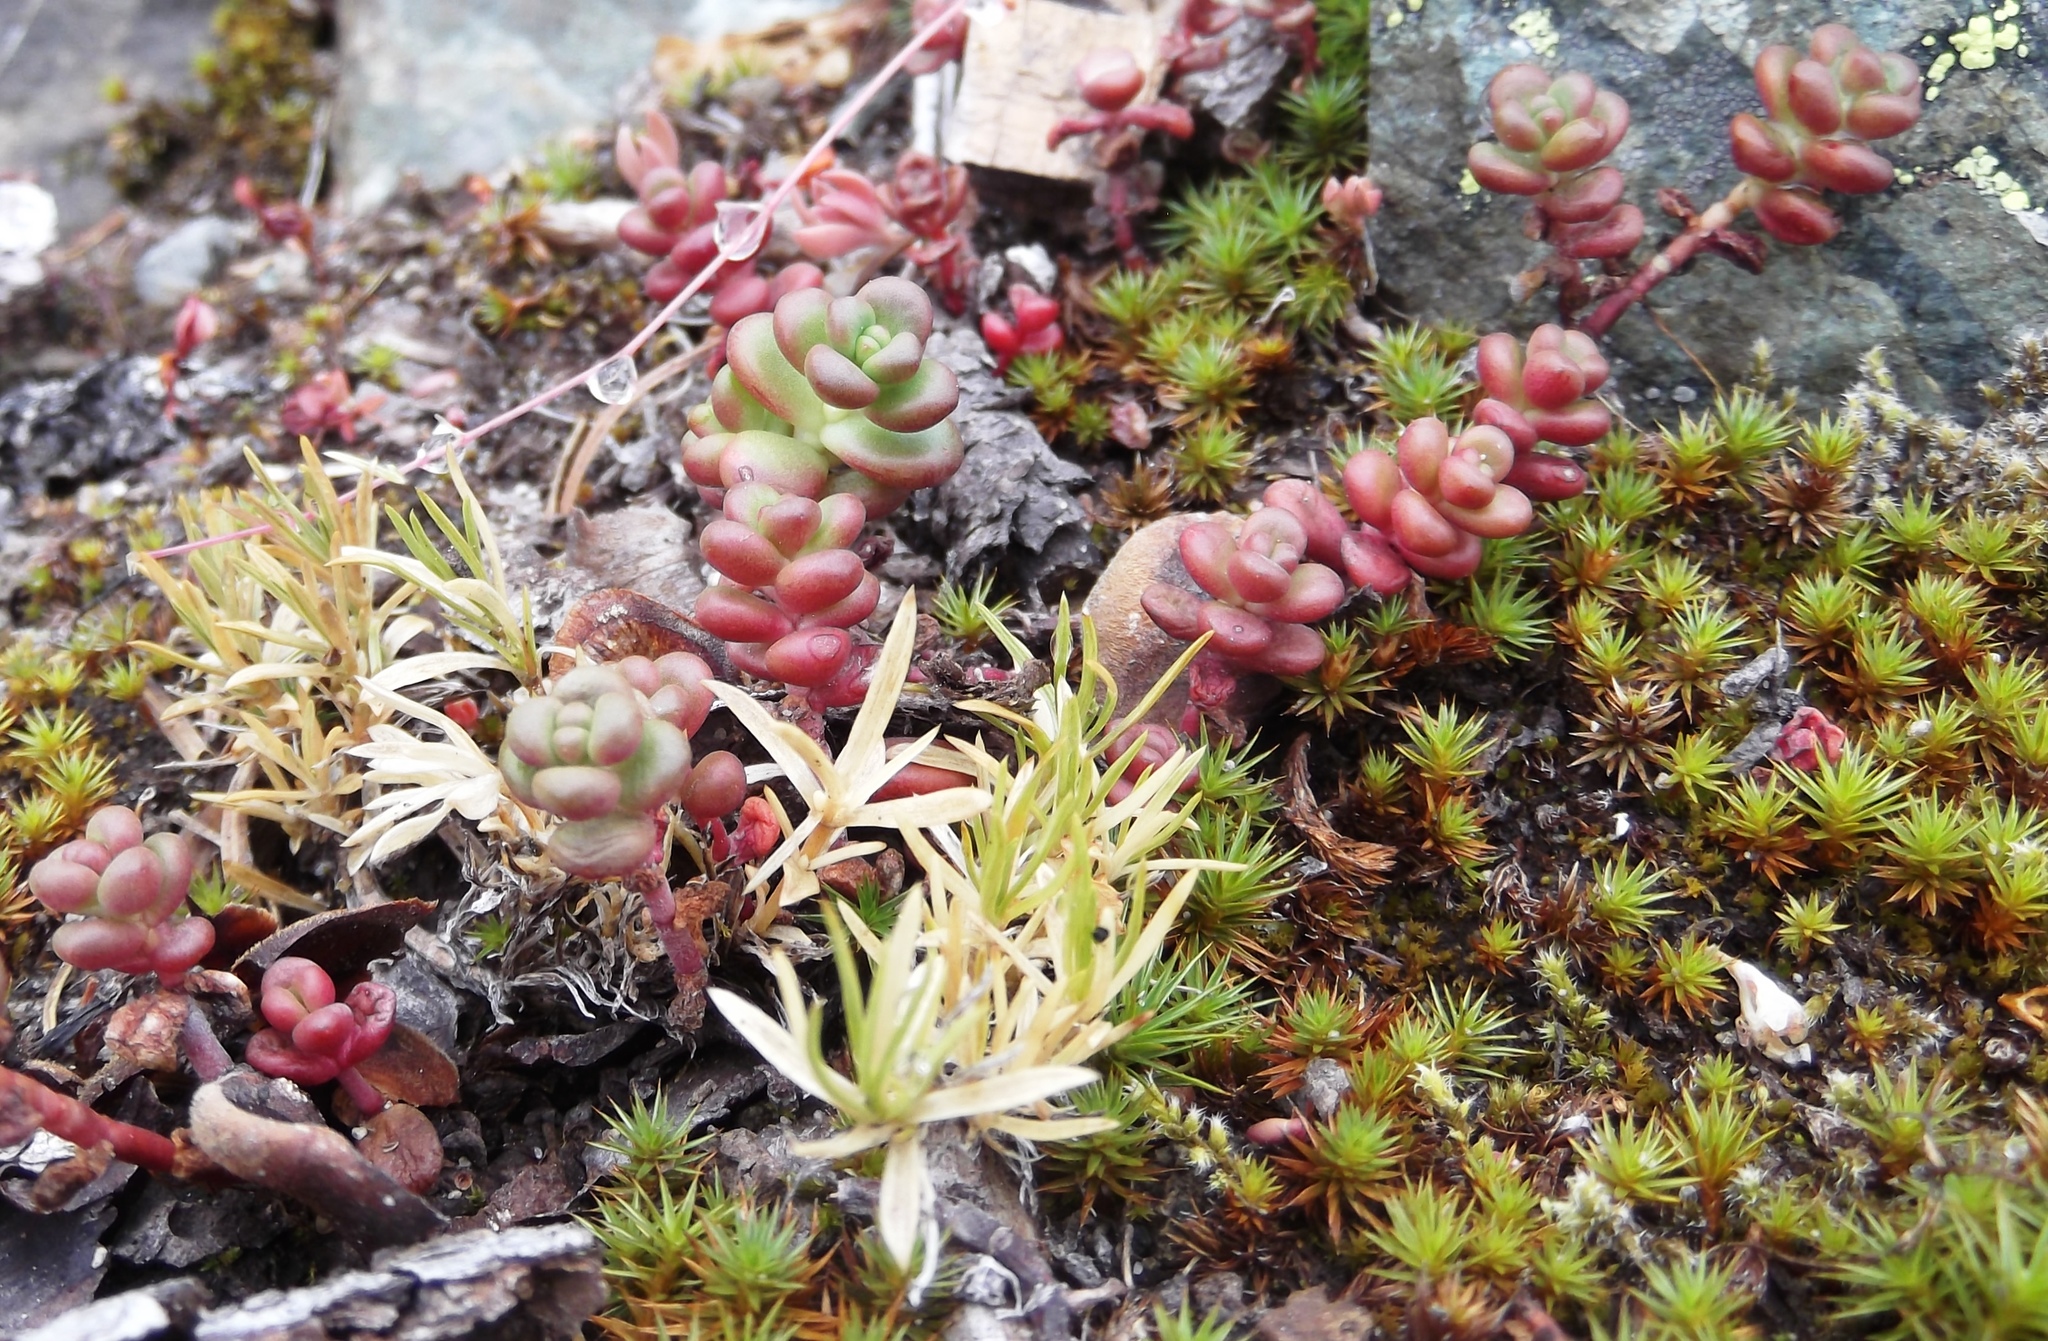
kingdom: Plantae
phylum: Tracheophyta
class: Magnoliopsida
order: Saxifragales
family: Crassulaceae
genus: Sedum
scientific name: Sedum divergens
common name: Cascade stonecrop
